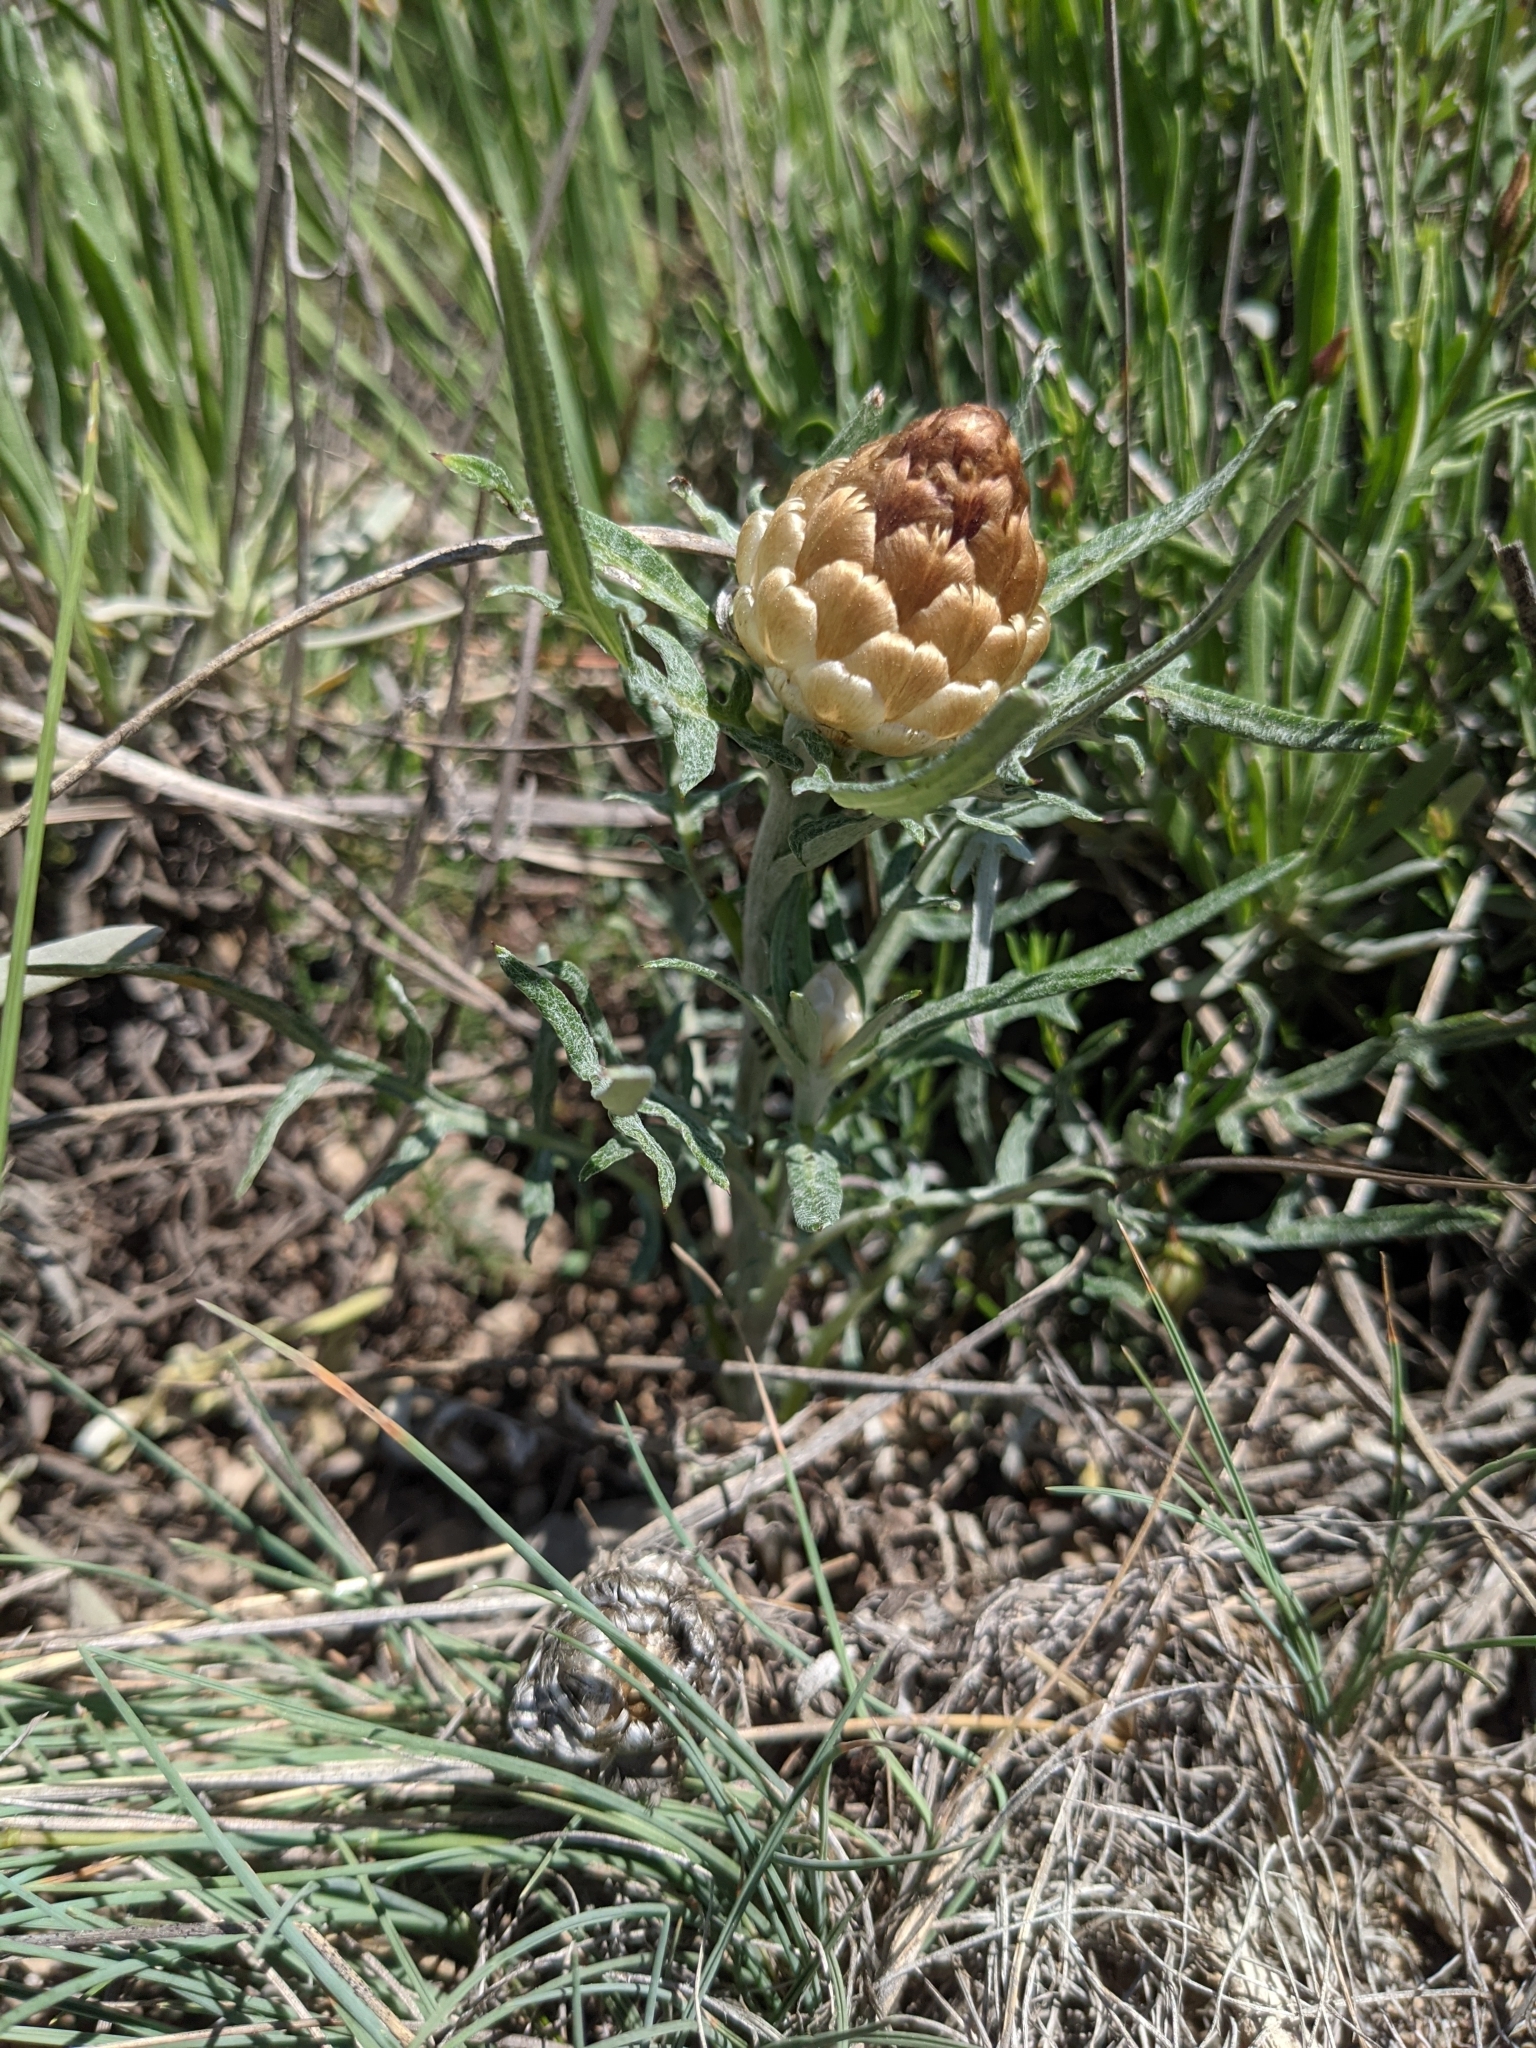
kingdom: Plantae
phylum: Tracheophyta
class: Magnoliopsida
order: Asterales
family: Asteraceae
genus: Leuzea
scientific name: Leuzea conifera
